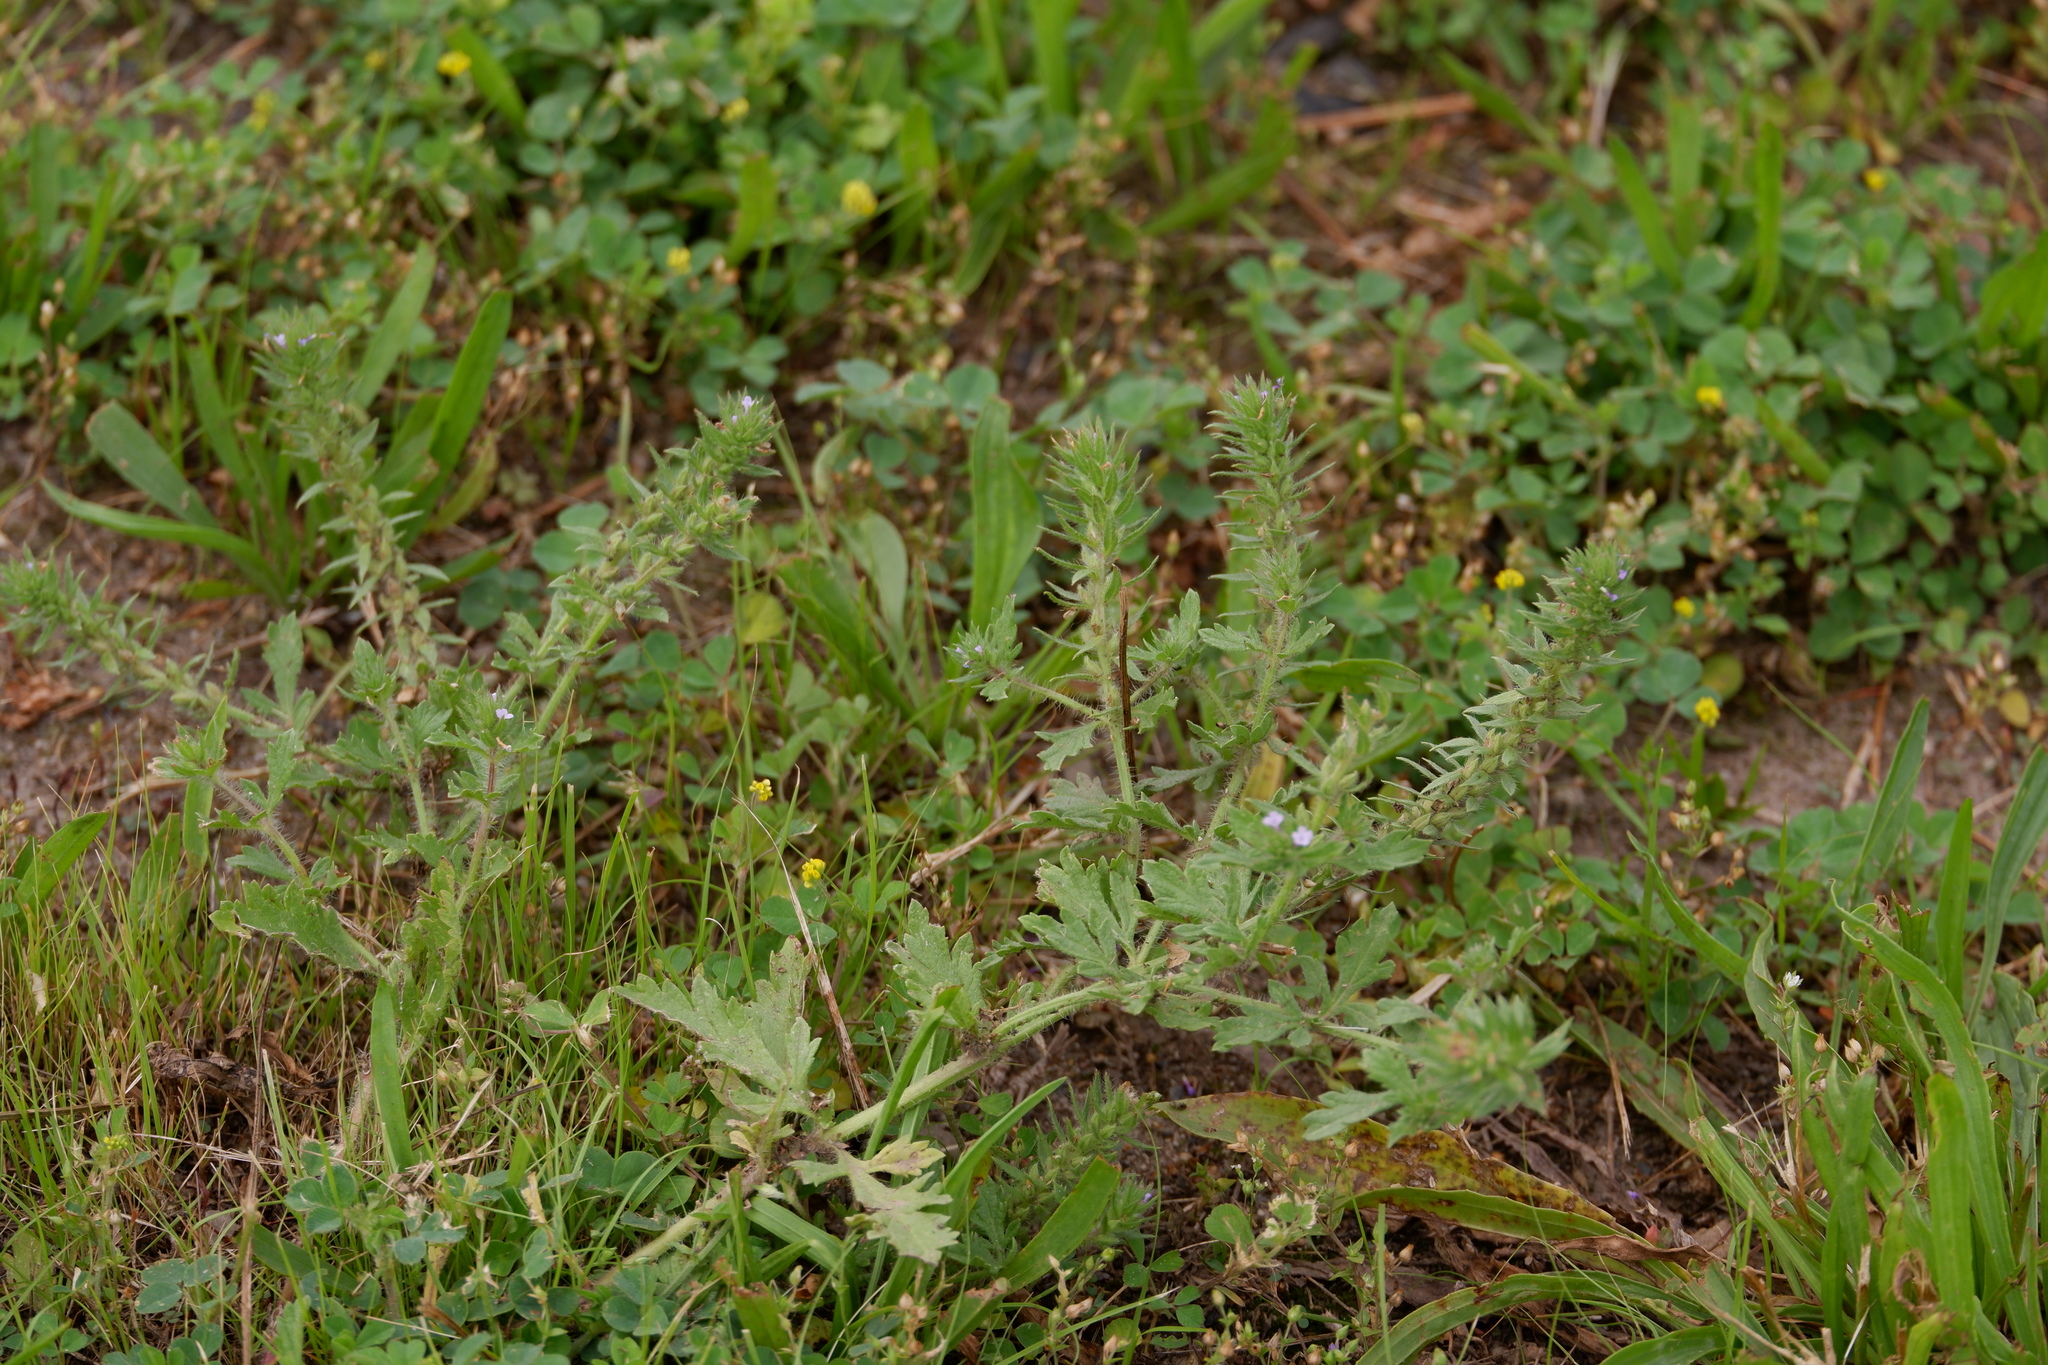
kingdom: Plantae
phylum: Tracheophyta
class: Magnoliopsida
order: Lamiales
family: Verbenaceae
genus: Verbena
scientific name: Verbena bracteata
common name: Bracted vervain
